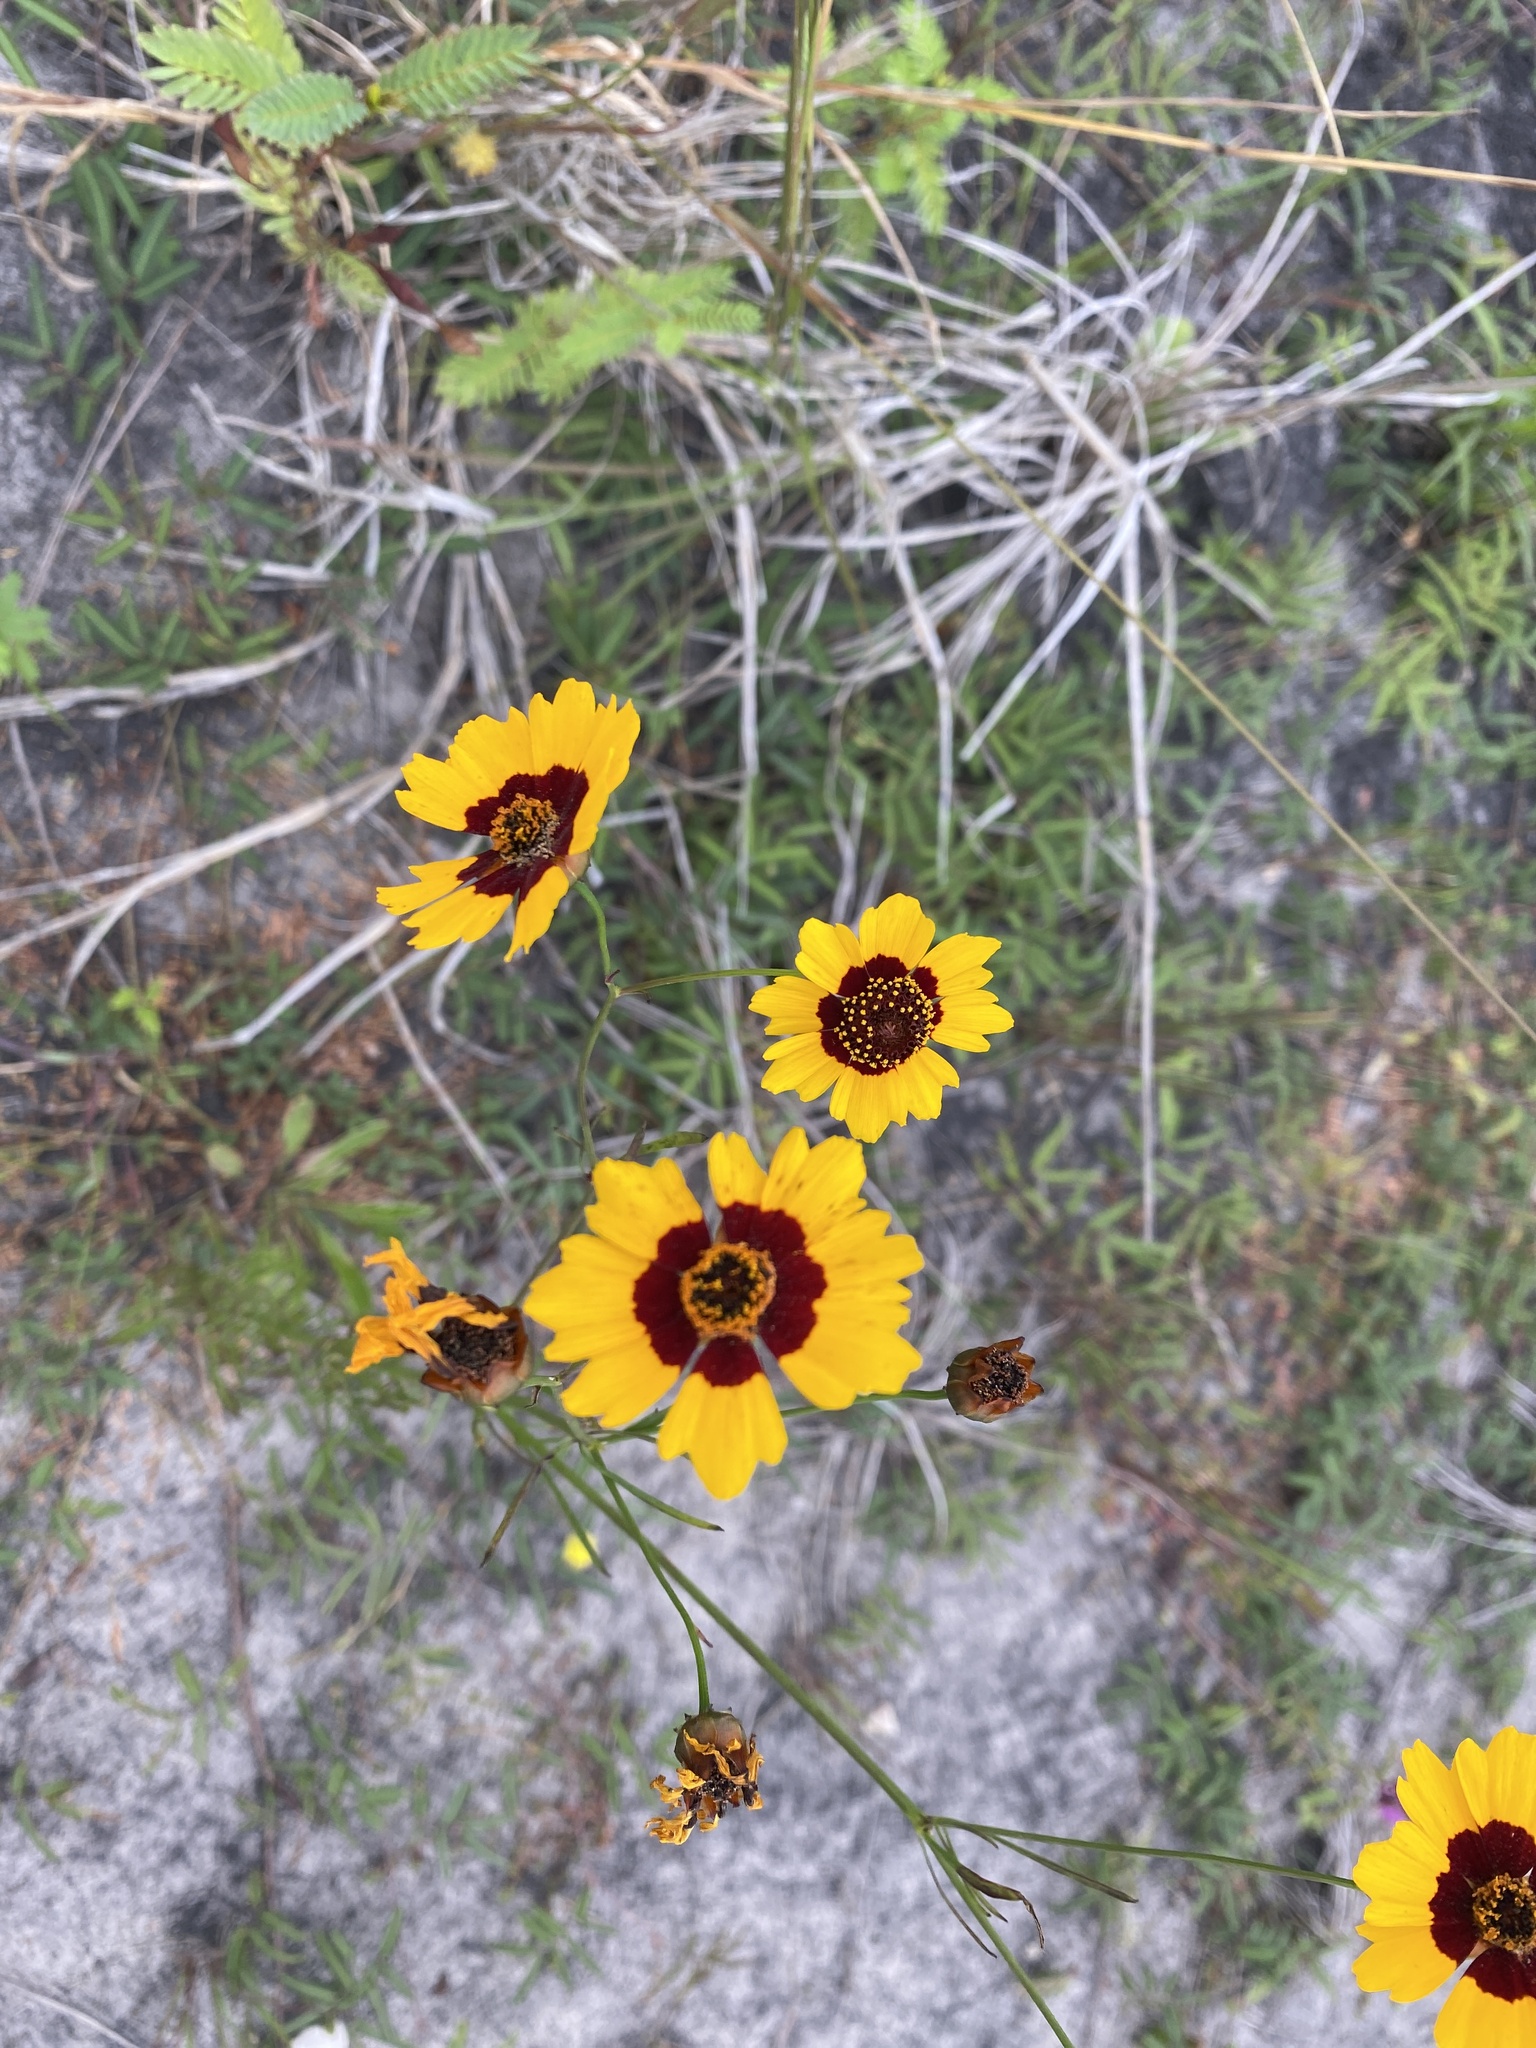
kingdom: Plantae
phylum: Tracheophyta
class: Magnoliopsida
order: Asterales
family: Asteraceae
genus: Coreopsis
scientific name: Coreopsis tinctoria
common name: Garden tickseed
